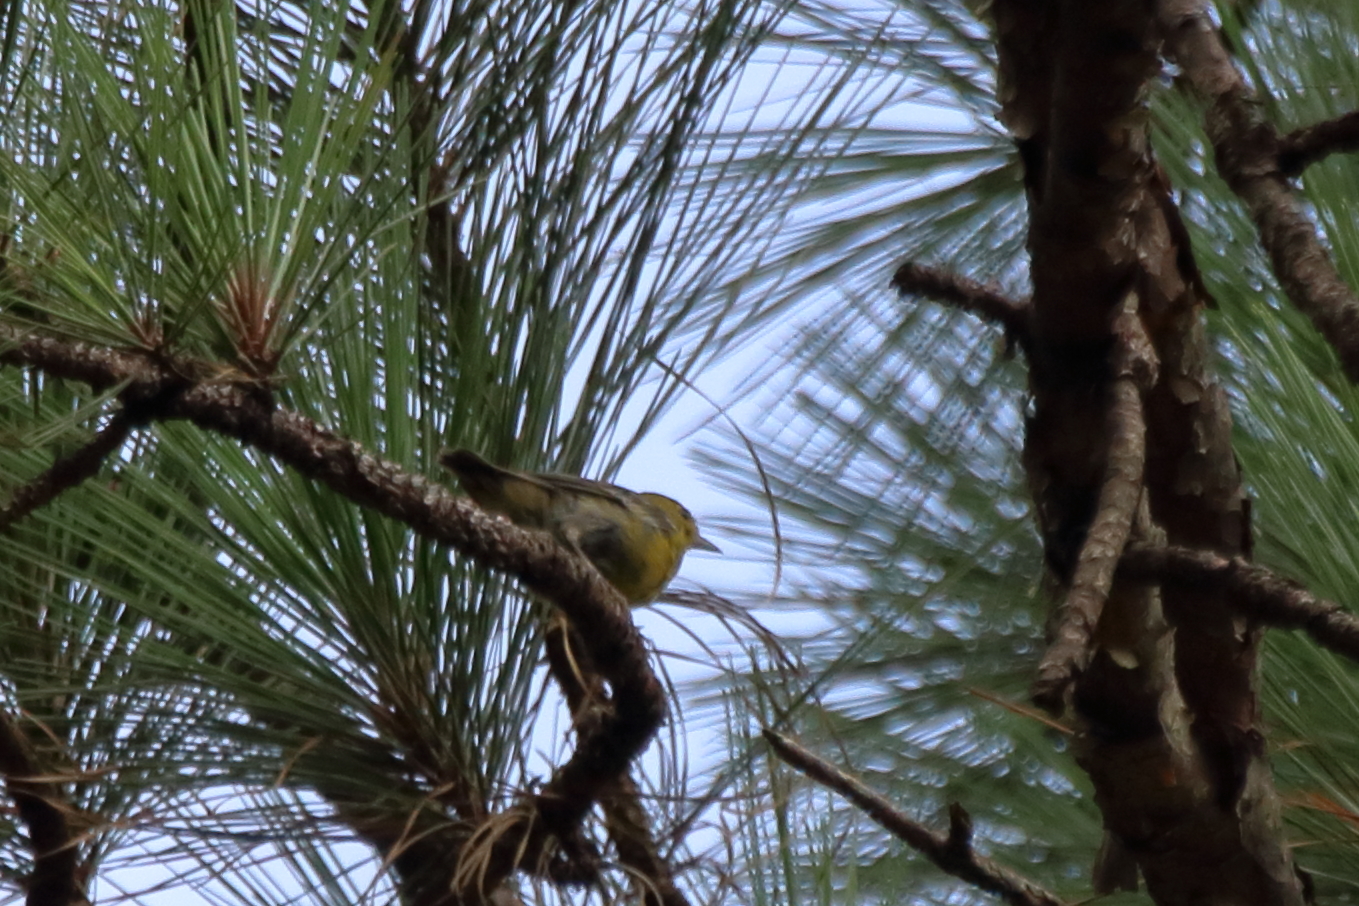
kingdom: Animalia
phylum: Chordata
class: Aves
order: Passeriformes
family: Parulidae
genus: Setophaga
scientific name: Setophaga pinus
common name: Pine warbler
